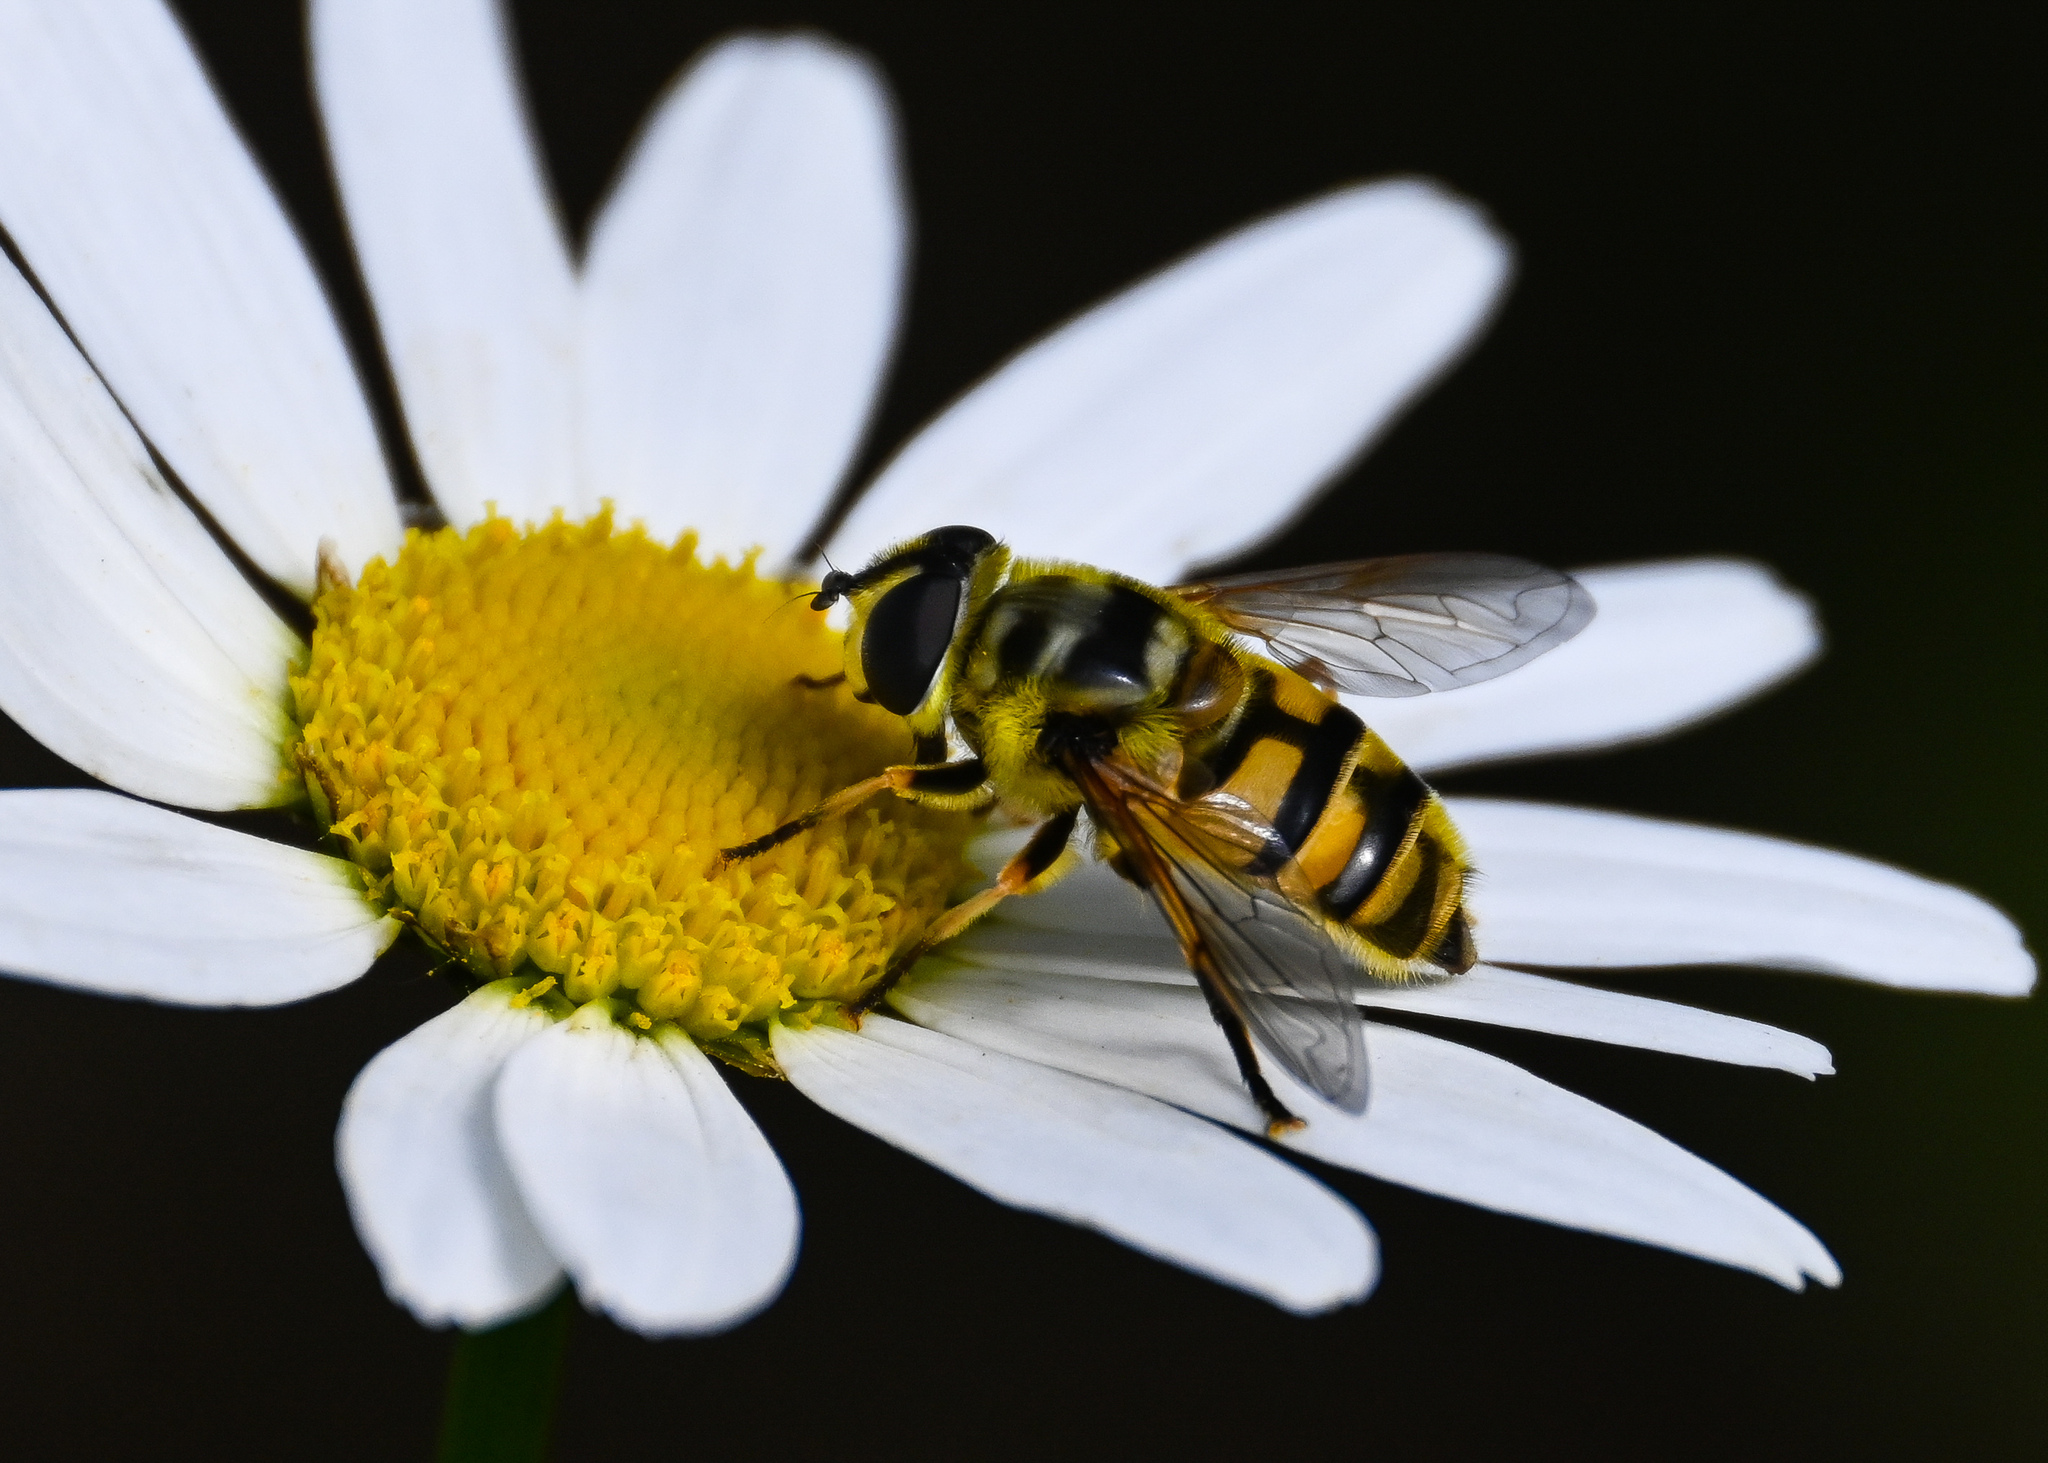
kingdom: Animalia
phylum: Arthropoda
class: Insecta
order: Diptera
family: Syrphidae
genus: Myathropa
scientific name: Myathropa florea
